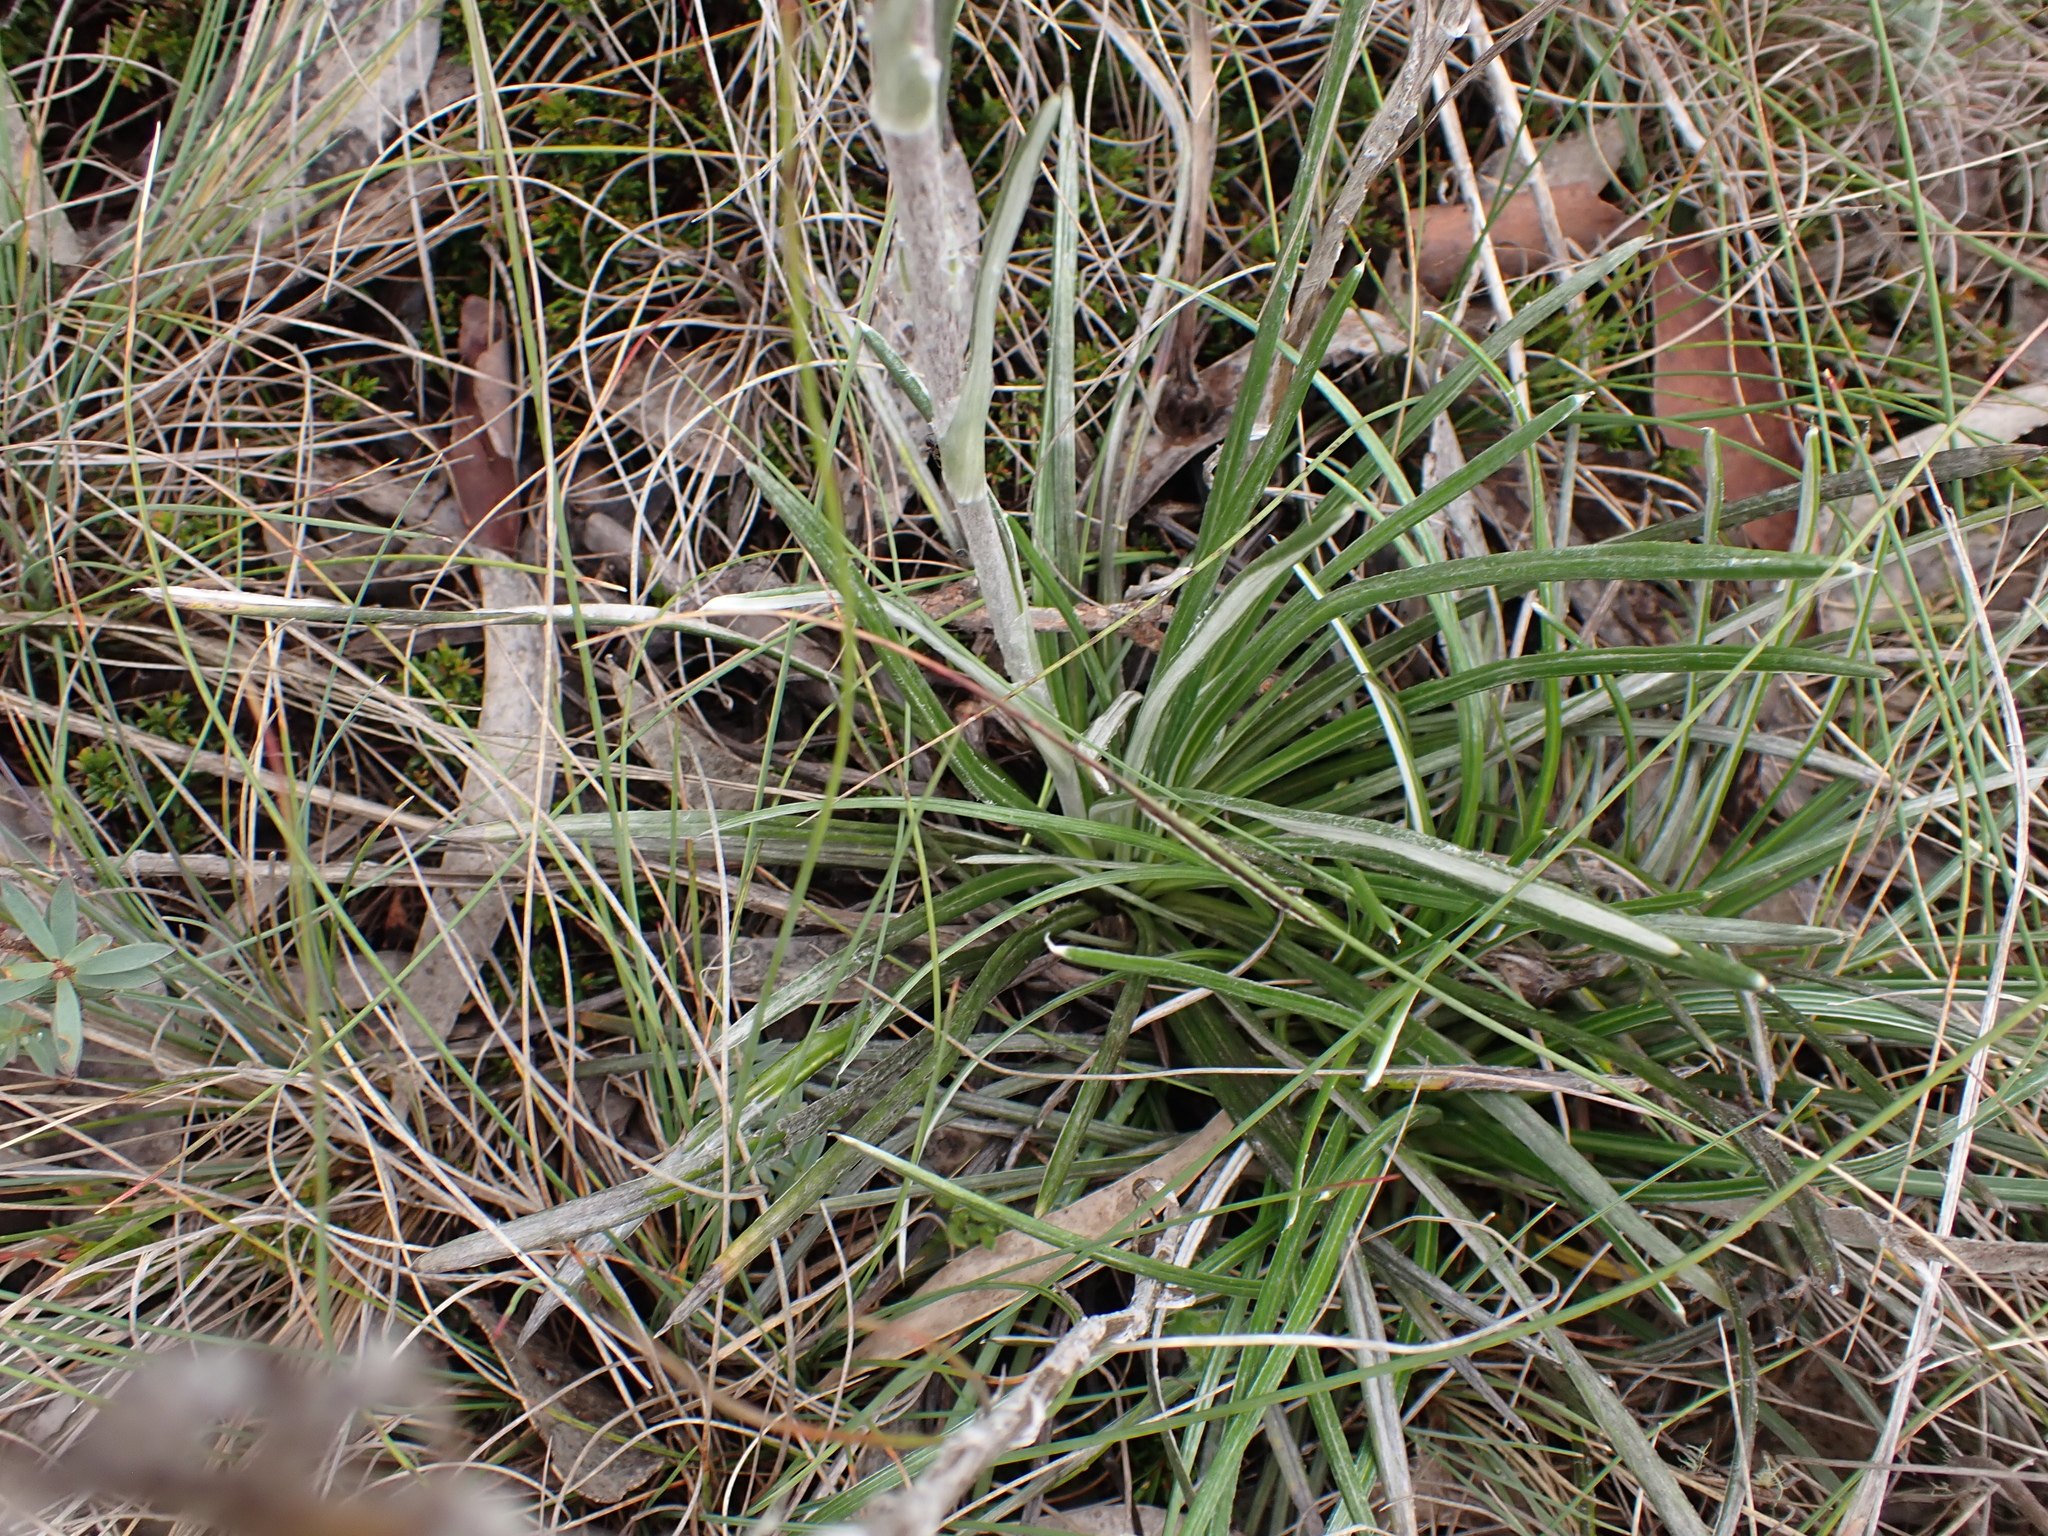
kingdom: Plantae
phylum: Tracheophyta
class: Magnoliopsida
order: Asterales
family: Asteraceae
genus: Celmisia
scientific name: Celmisia pugioniformis
